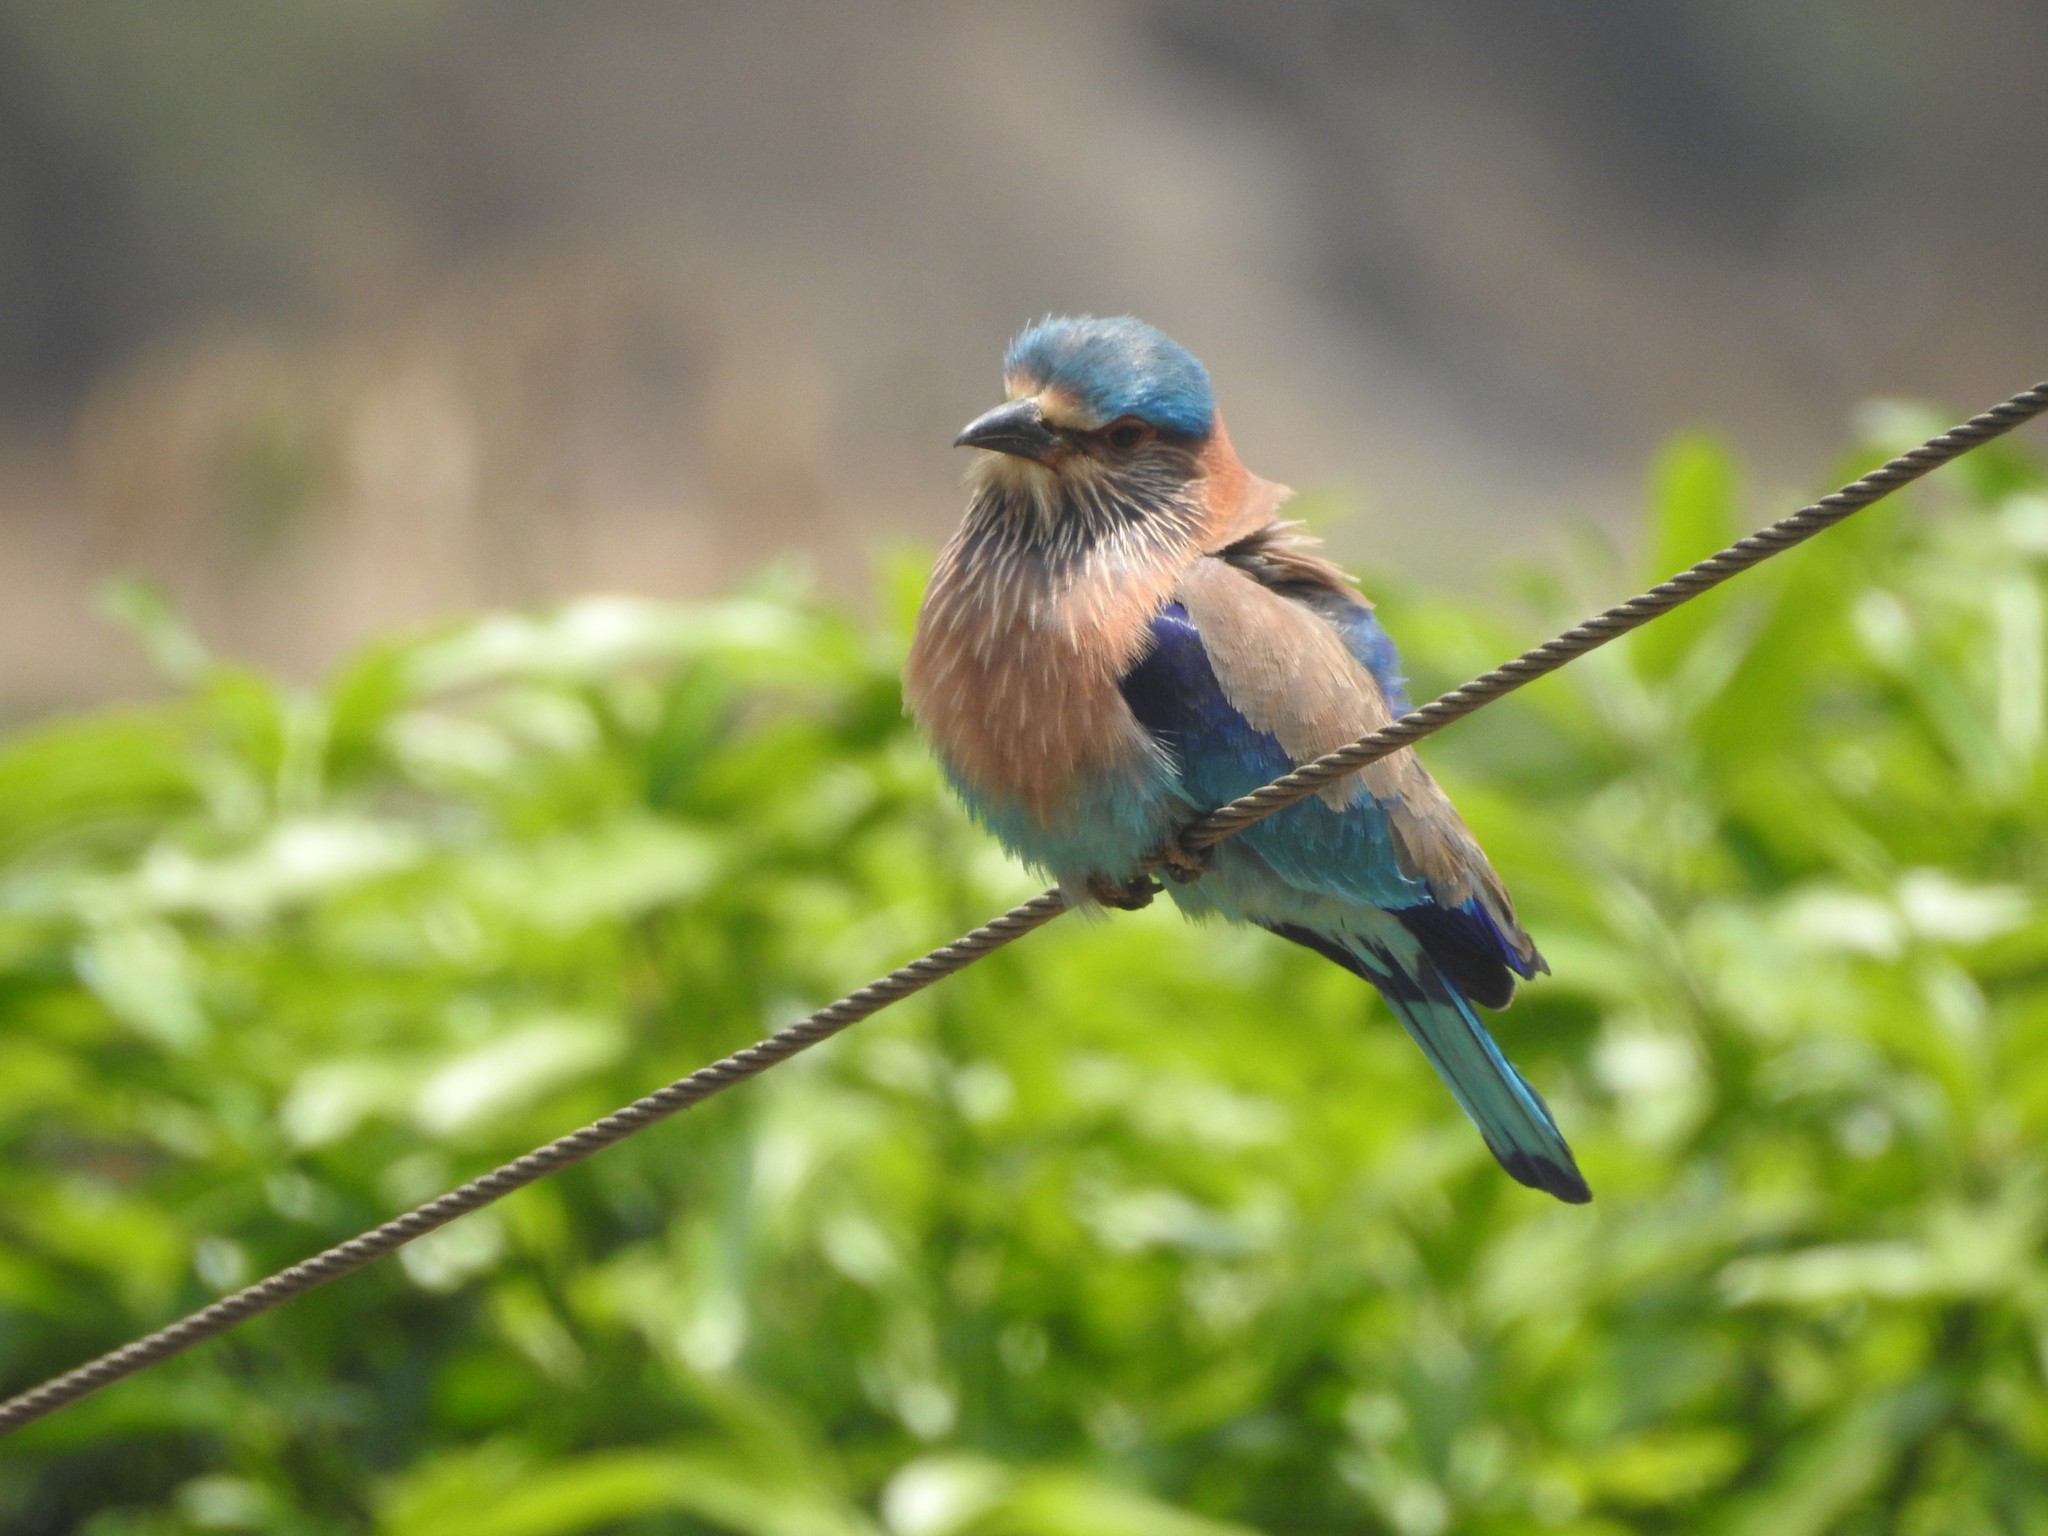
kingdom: Animalia
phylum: Chordata
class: Aves
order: Coraciiformes
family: Coraciidae
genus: Coracias
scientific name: Coracias benghalensis
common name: Indian roller
